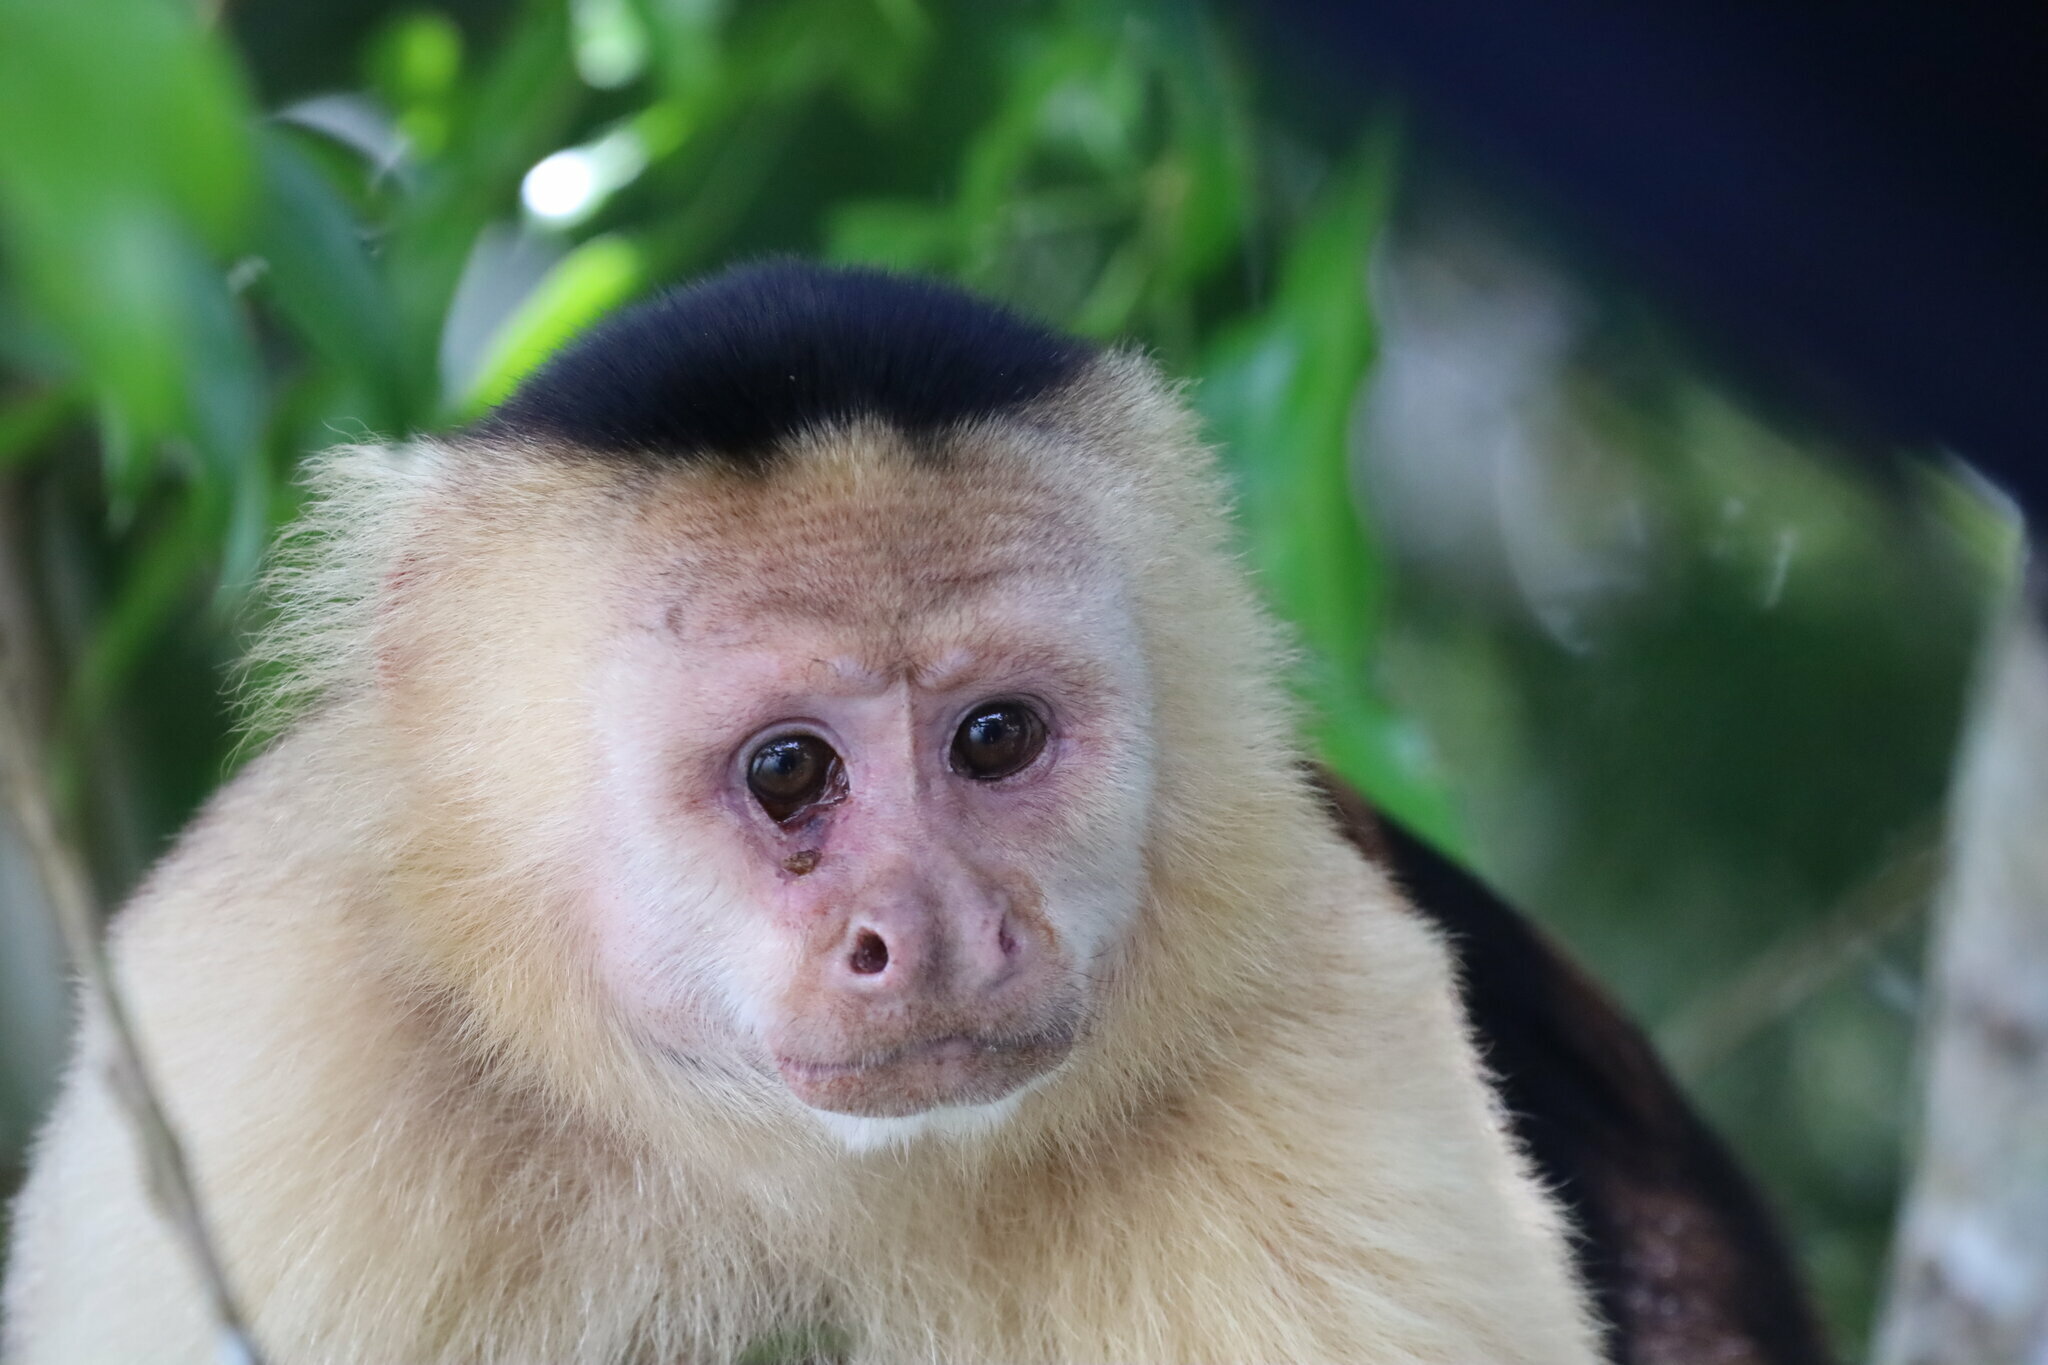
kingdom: Animalia
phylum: Chordata
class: Mammalia
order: Primates
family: Cebidae
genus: Cebus
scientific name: Cebus imitator
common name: Panamanian white-faced capuchin
